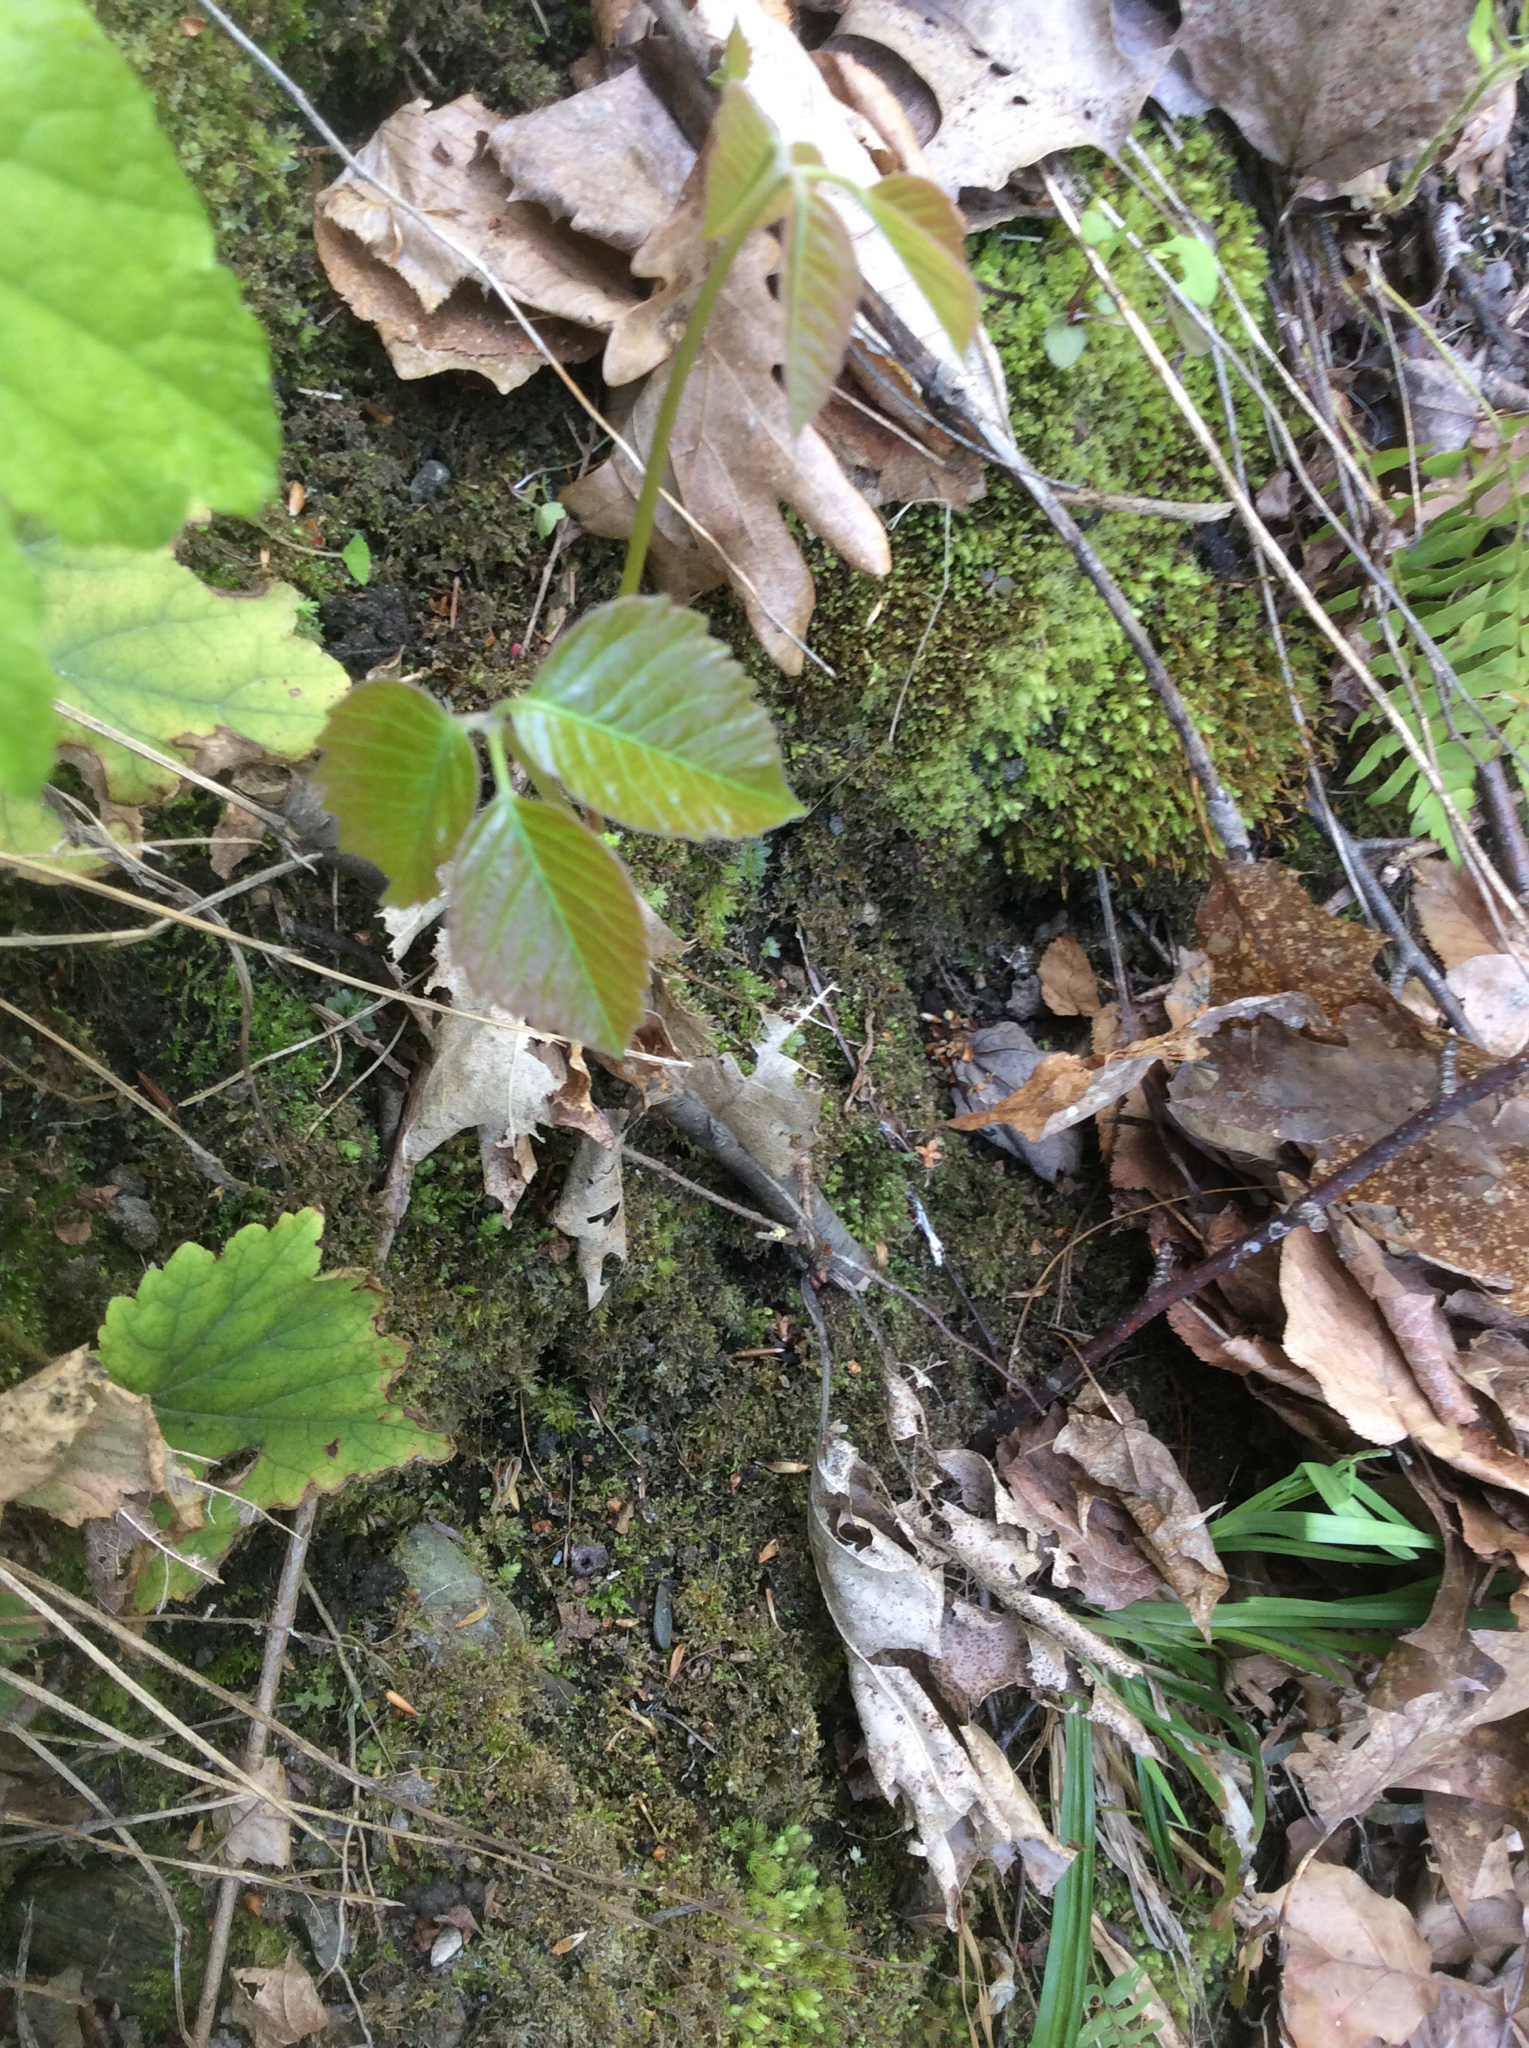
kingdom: Plantae
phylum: Tracheophyta
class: Magnoliopsida
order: Sapindales
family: Anacardiaceae
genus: Toxicodendron
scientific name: Toxicodendron radicans
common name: Poison ivy
